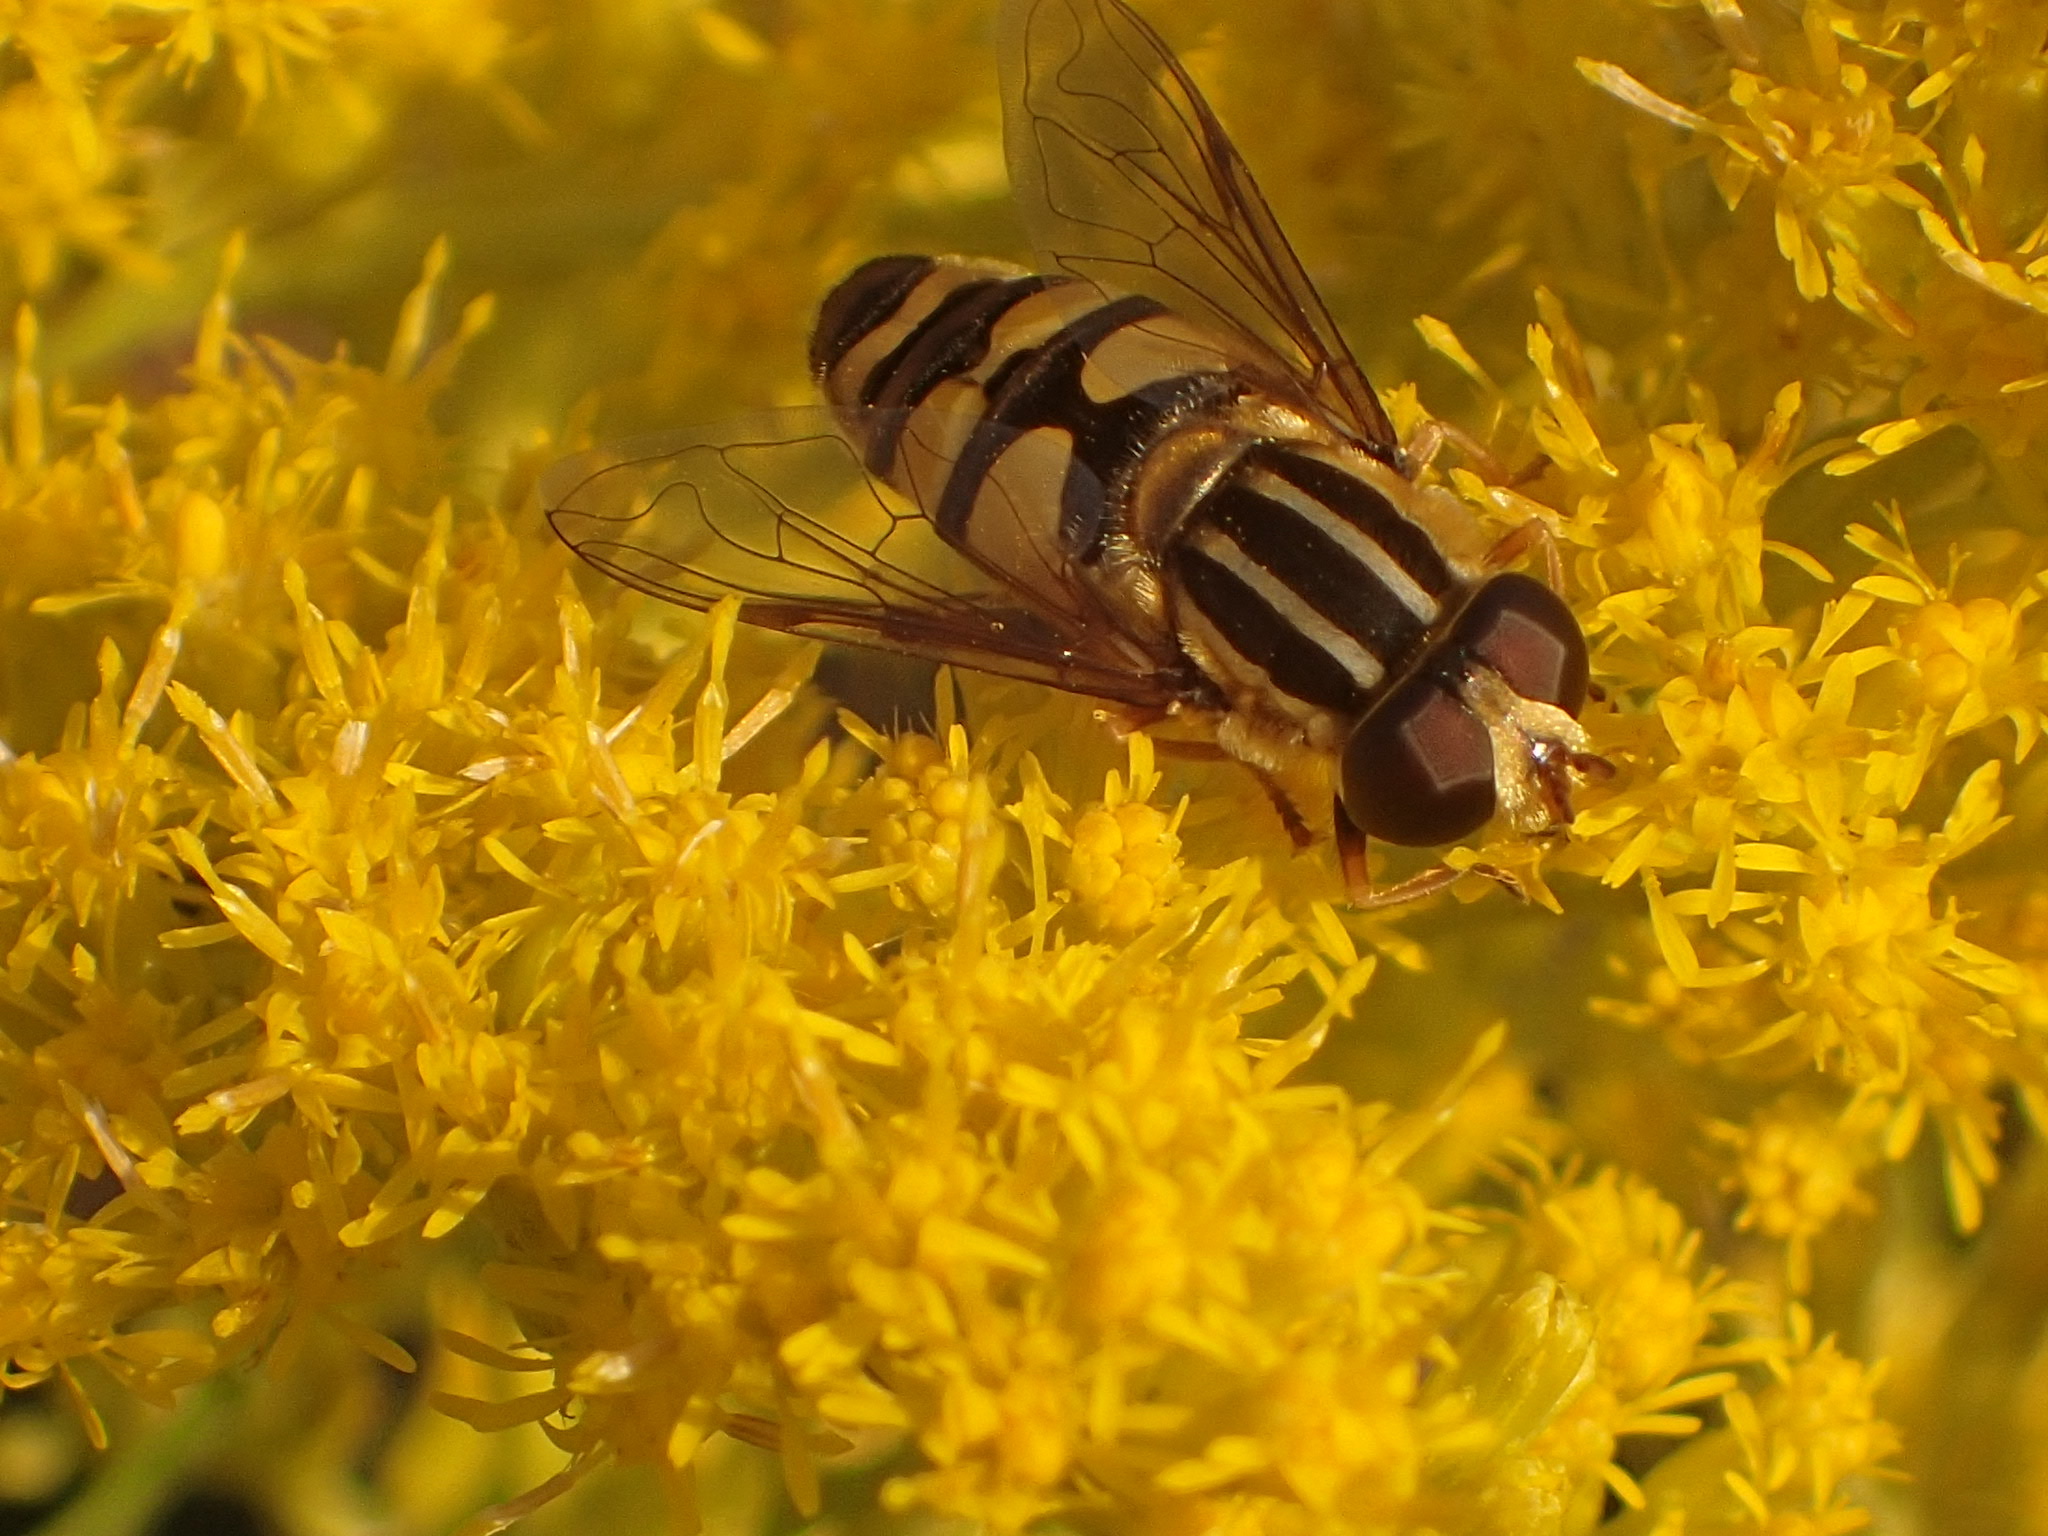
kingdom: Animalia
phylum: Arthropoda
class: Insecta
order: Diptera
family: Syrphidae
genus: Helophilus
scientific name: Helophilus fasciatus
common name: Narrow-headed marsh fly
